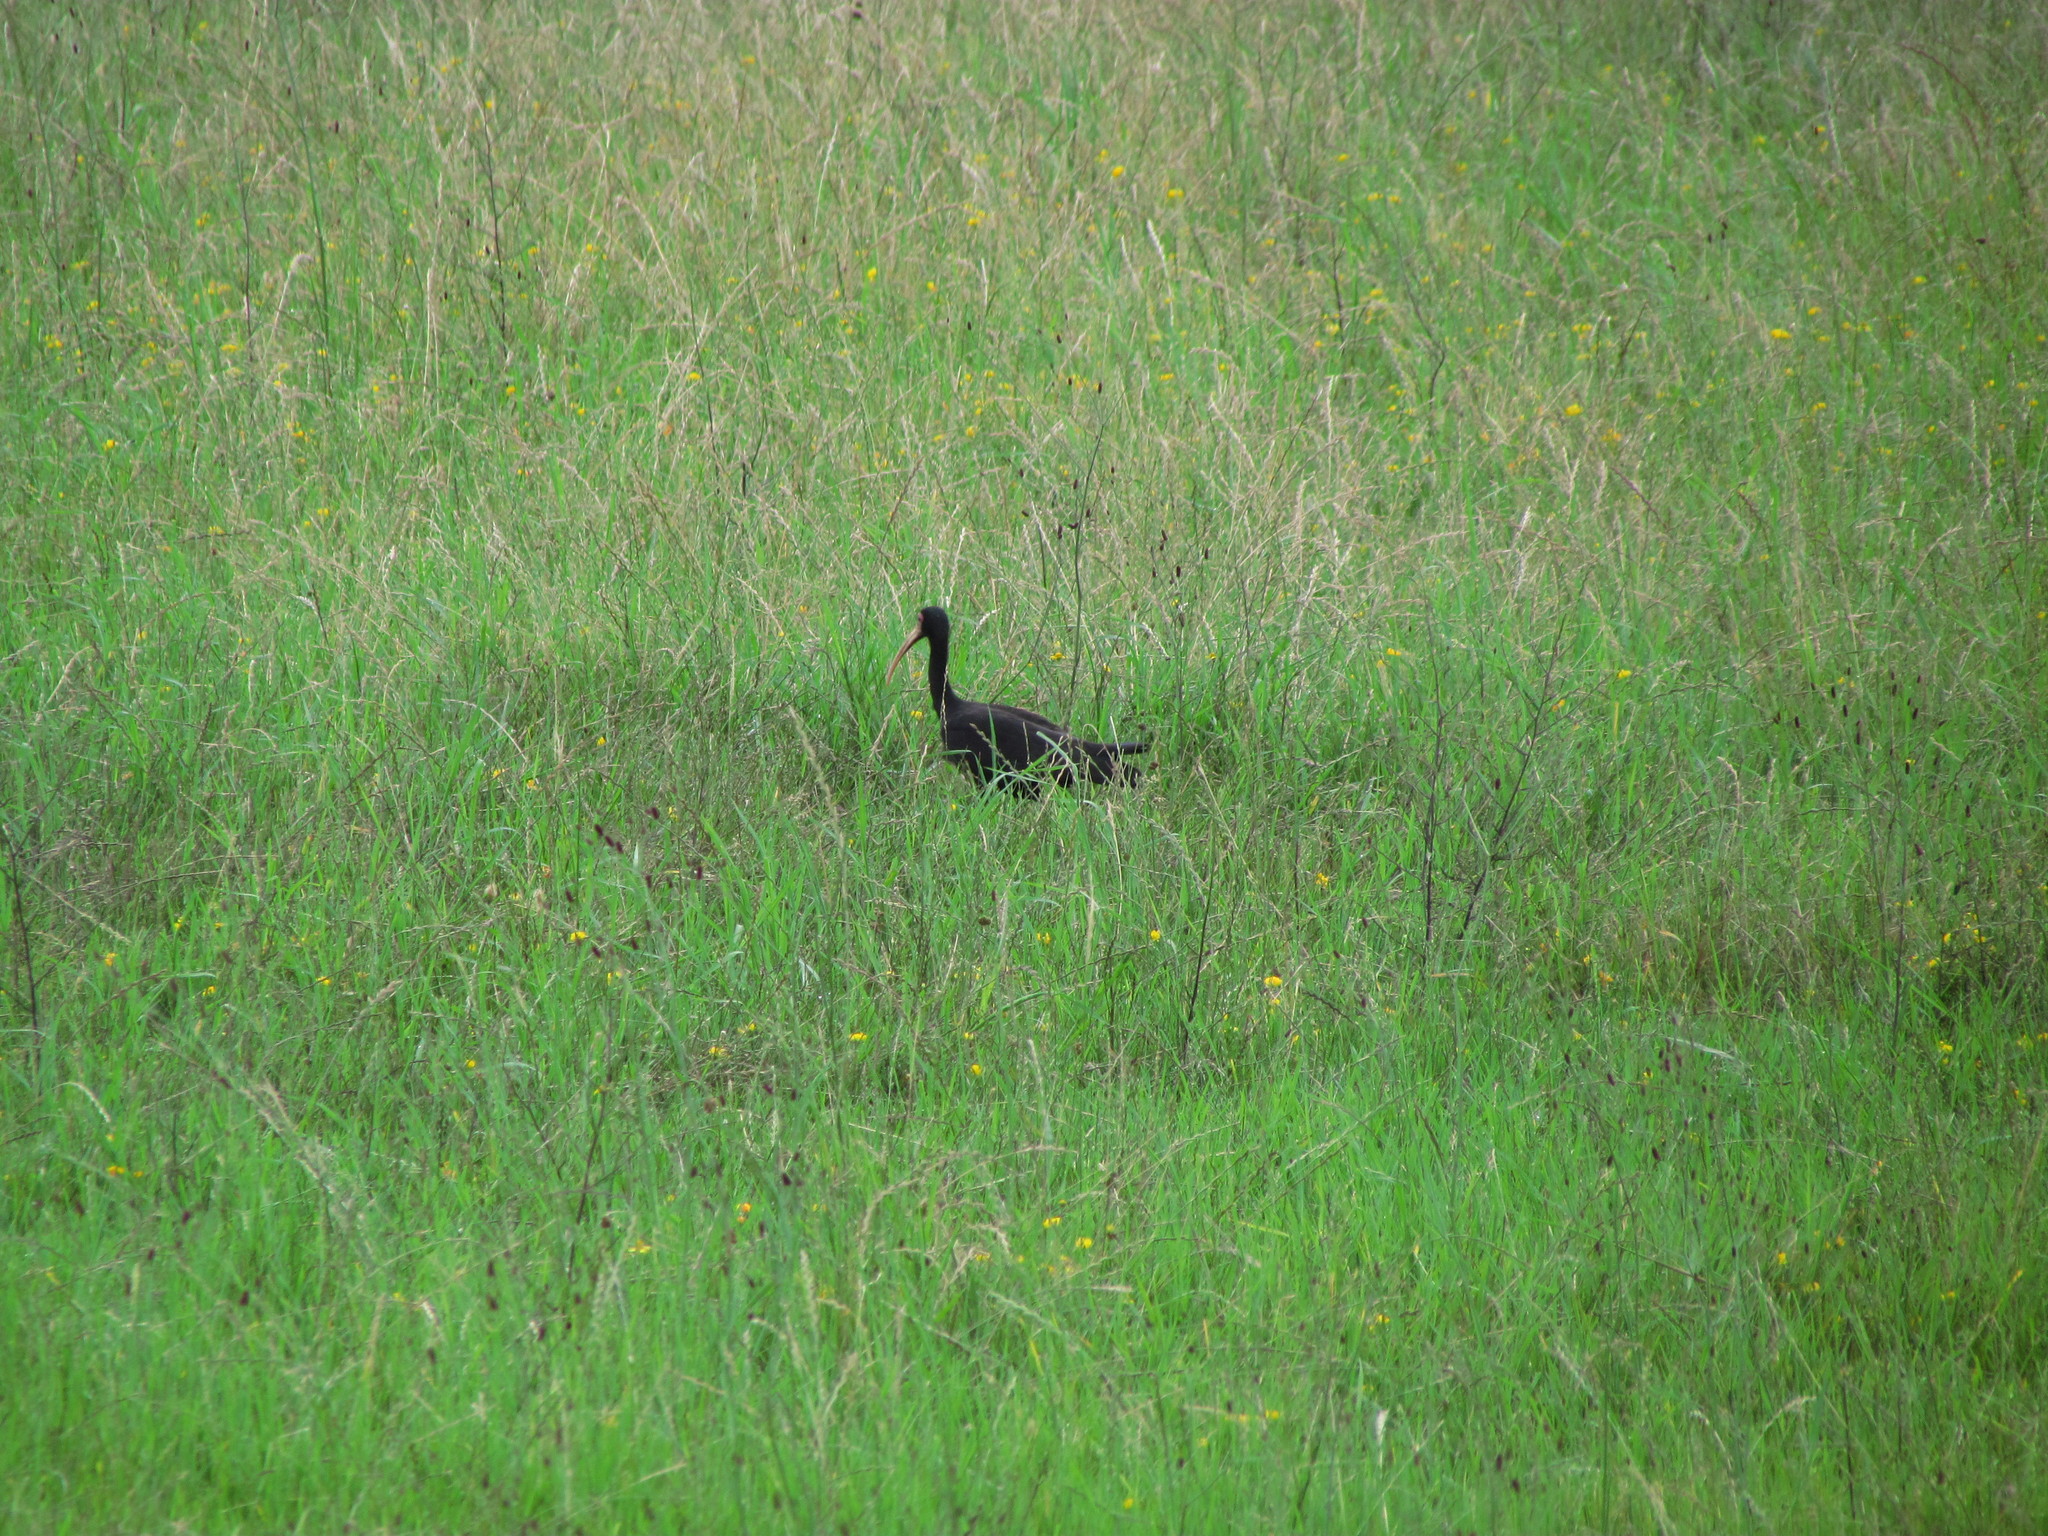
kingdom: Animalia
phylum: Chordata
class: Aves
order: Pelecaniformes
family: Threskiornithidae
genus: Phimosus
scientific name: Phimosus infuscatus
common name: Bare-faced ibis
